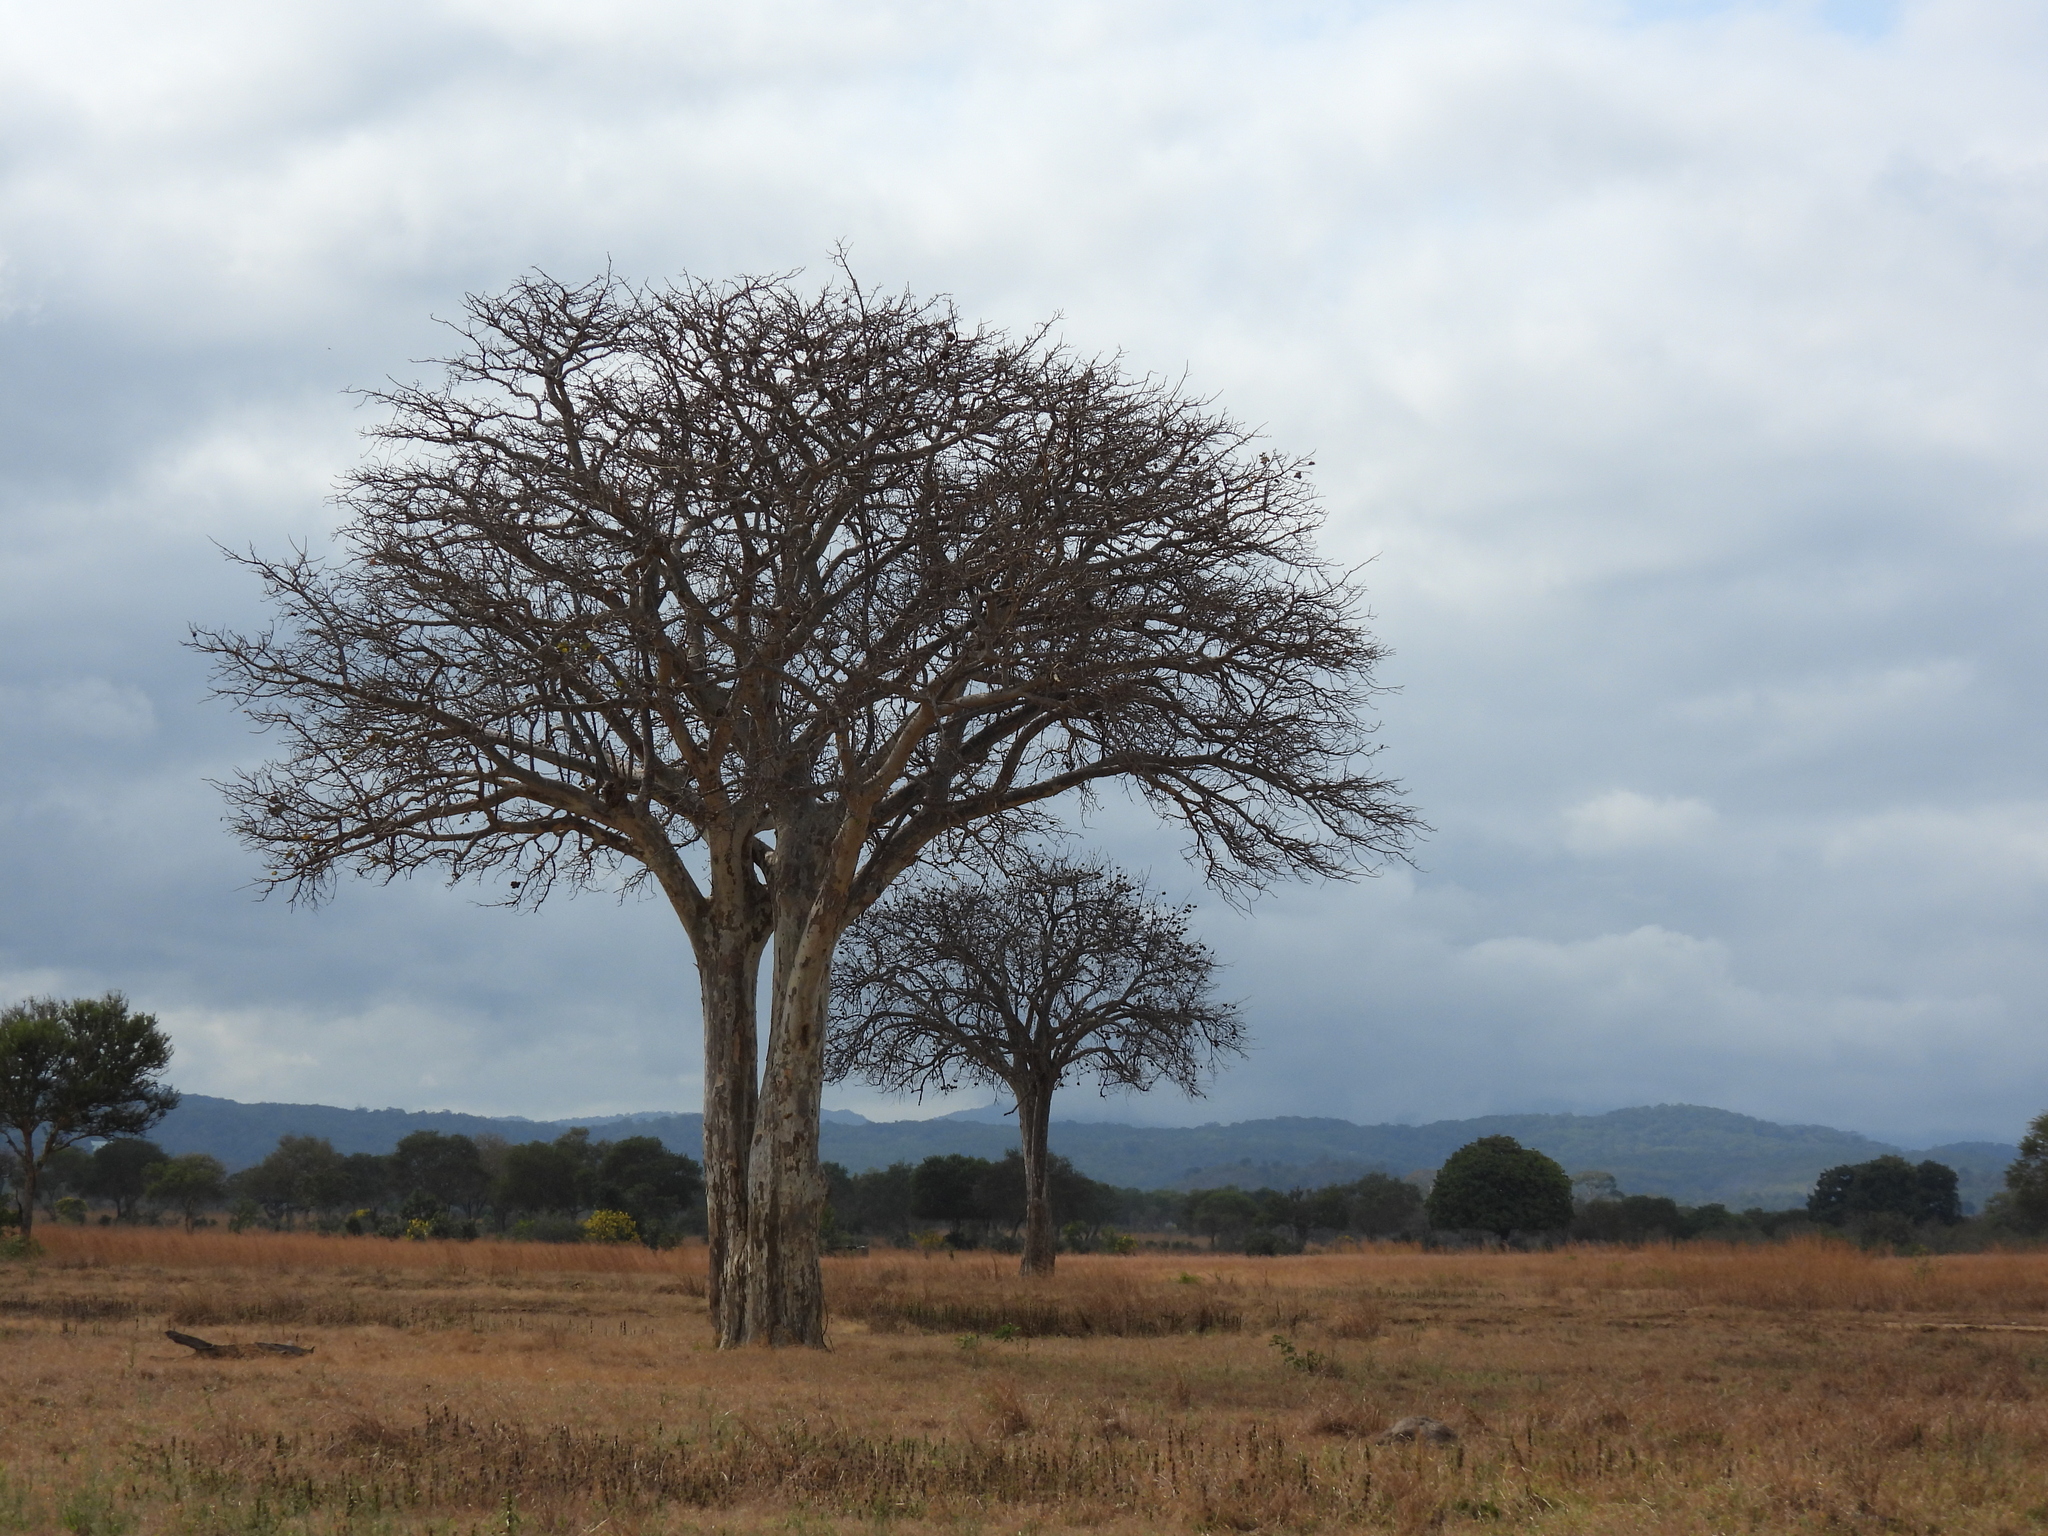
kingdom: Plantae
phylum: Tracheophyta
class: Magnoliopsida
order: Malvales
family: Malvaceae
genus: Adansonia
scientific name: Adansonia digitata
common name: Dead-rat-tree
